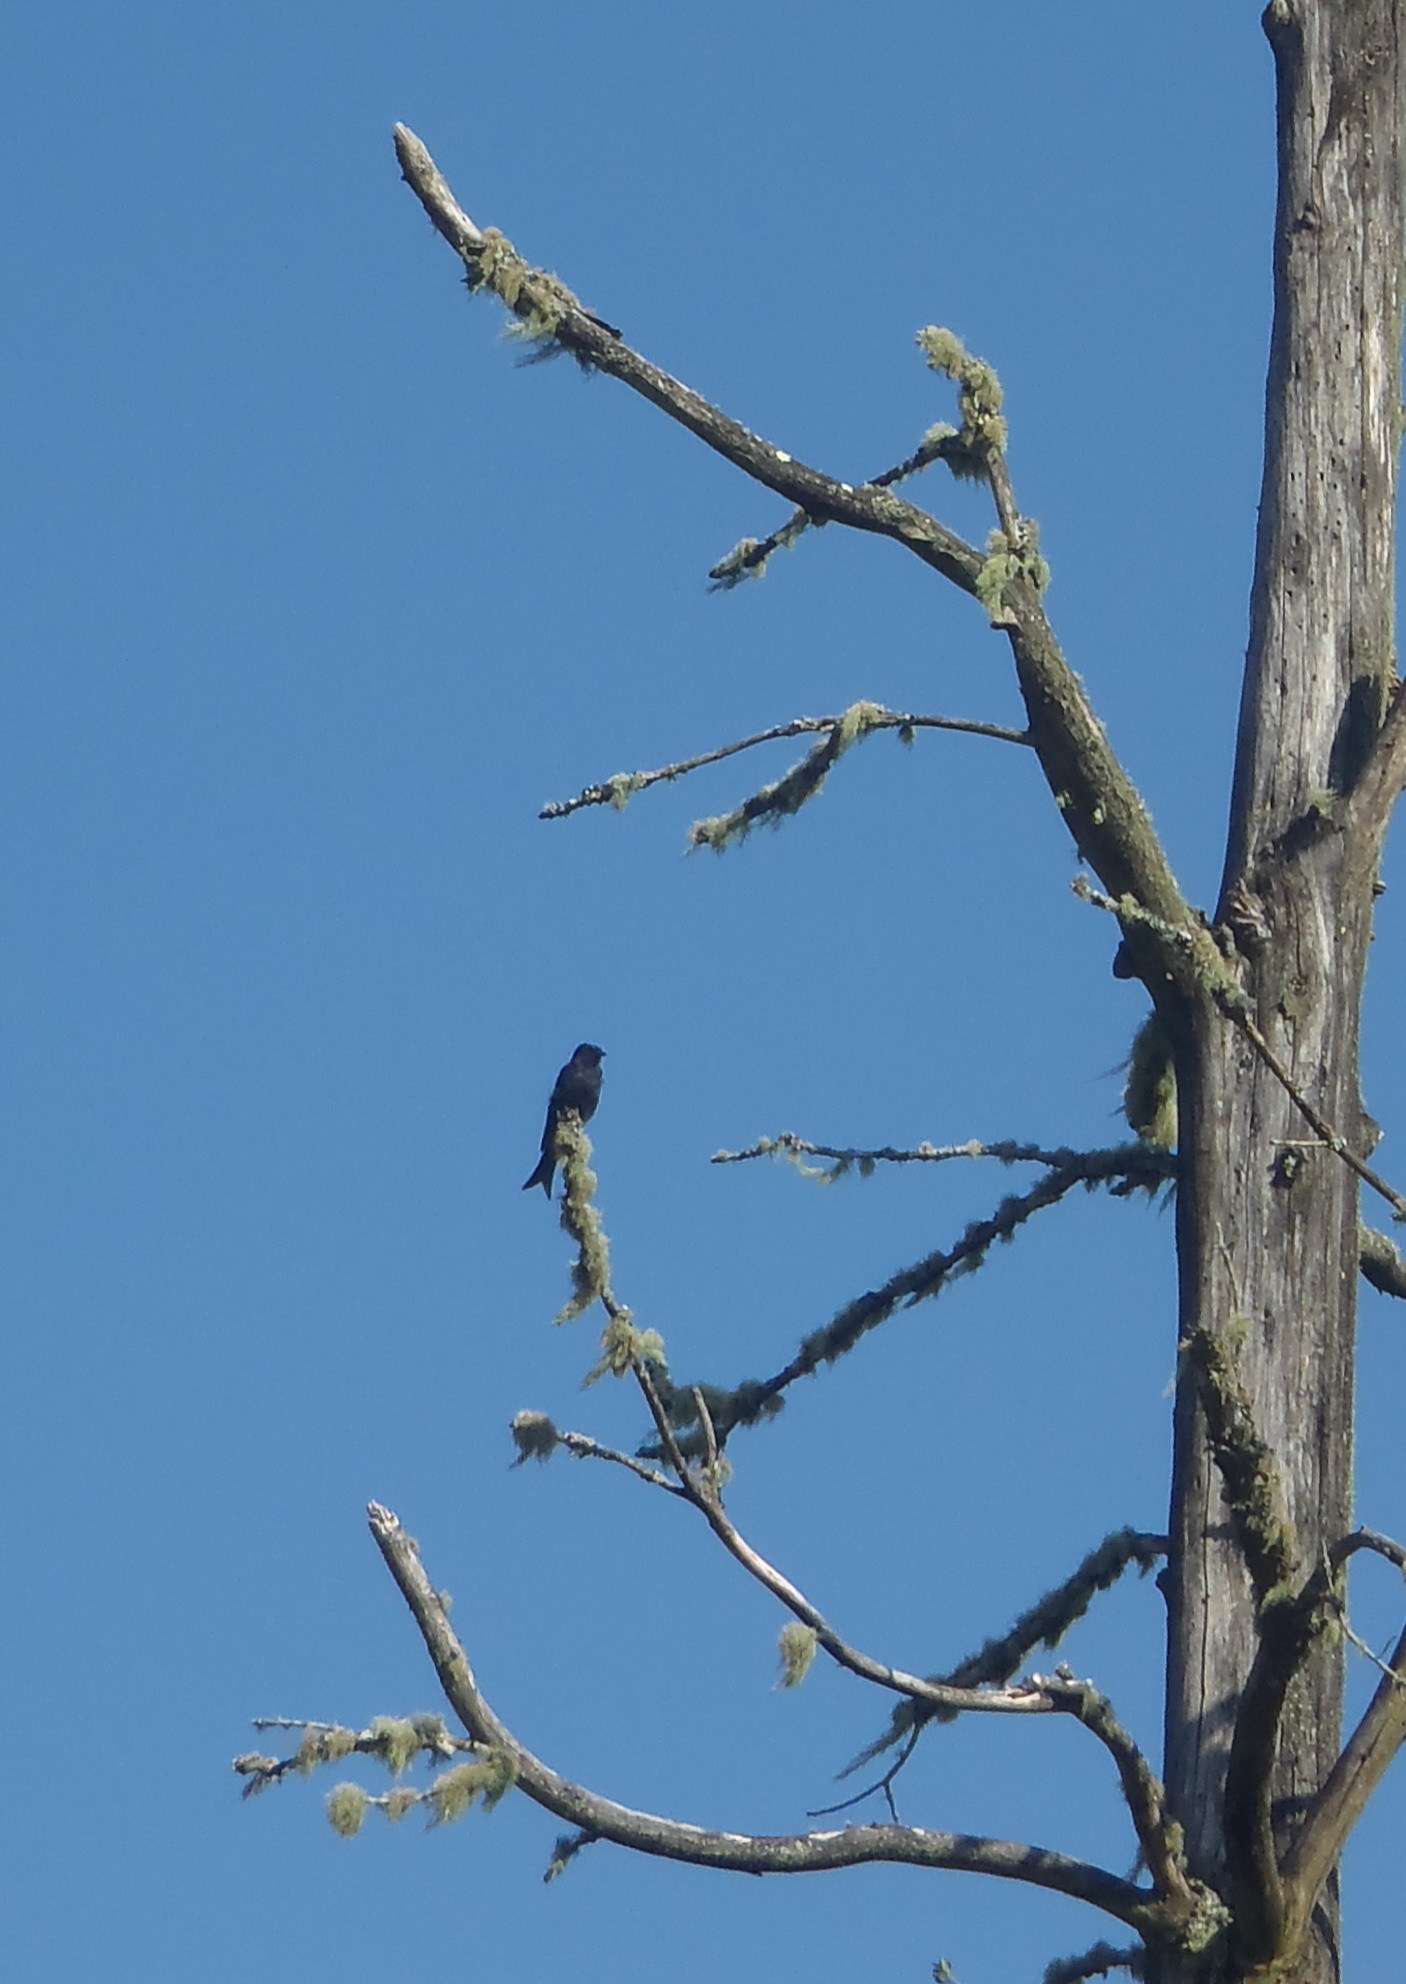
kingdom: Animalia
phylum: Chordata
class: Aves
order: Passeriformes
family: Dicruridae
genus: Dicrurus
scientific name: Dicrurus adsimilis
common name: Fork-tailed drongo
